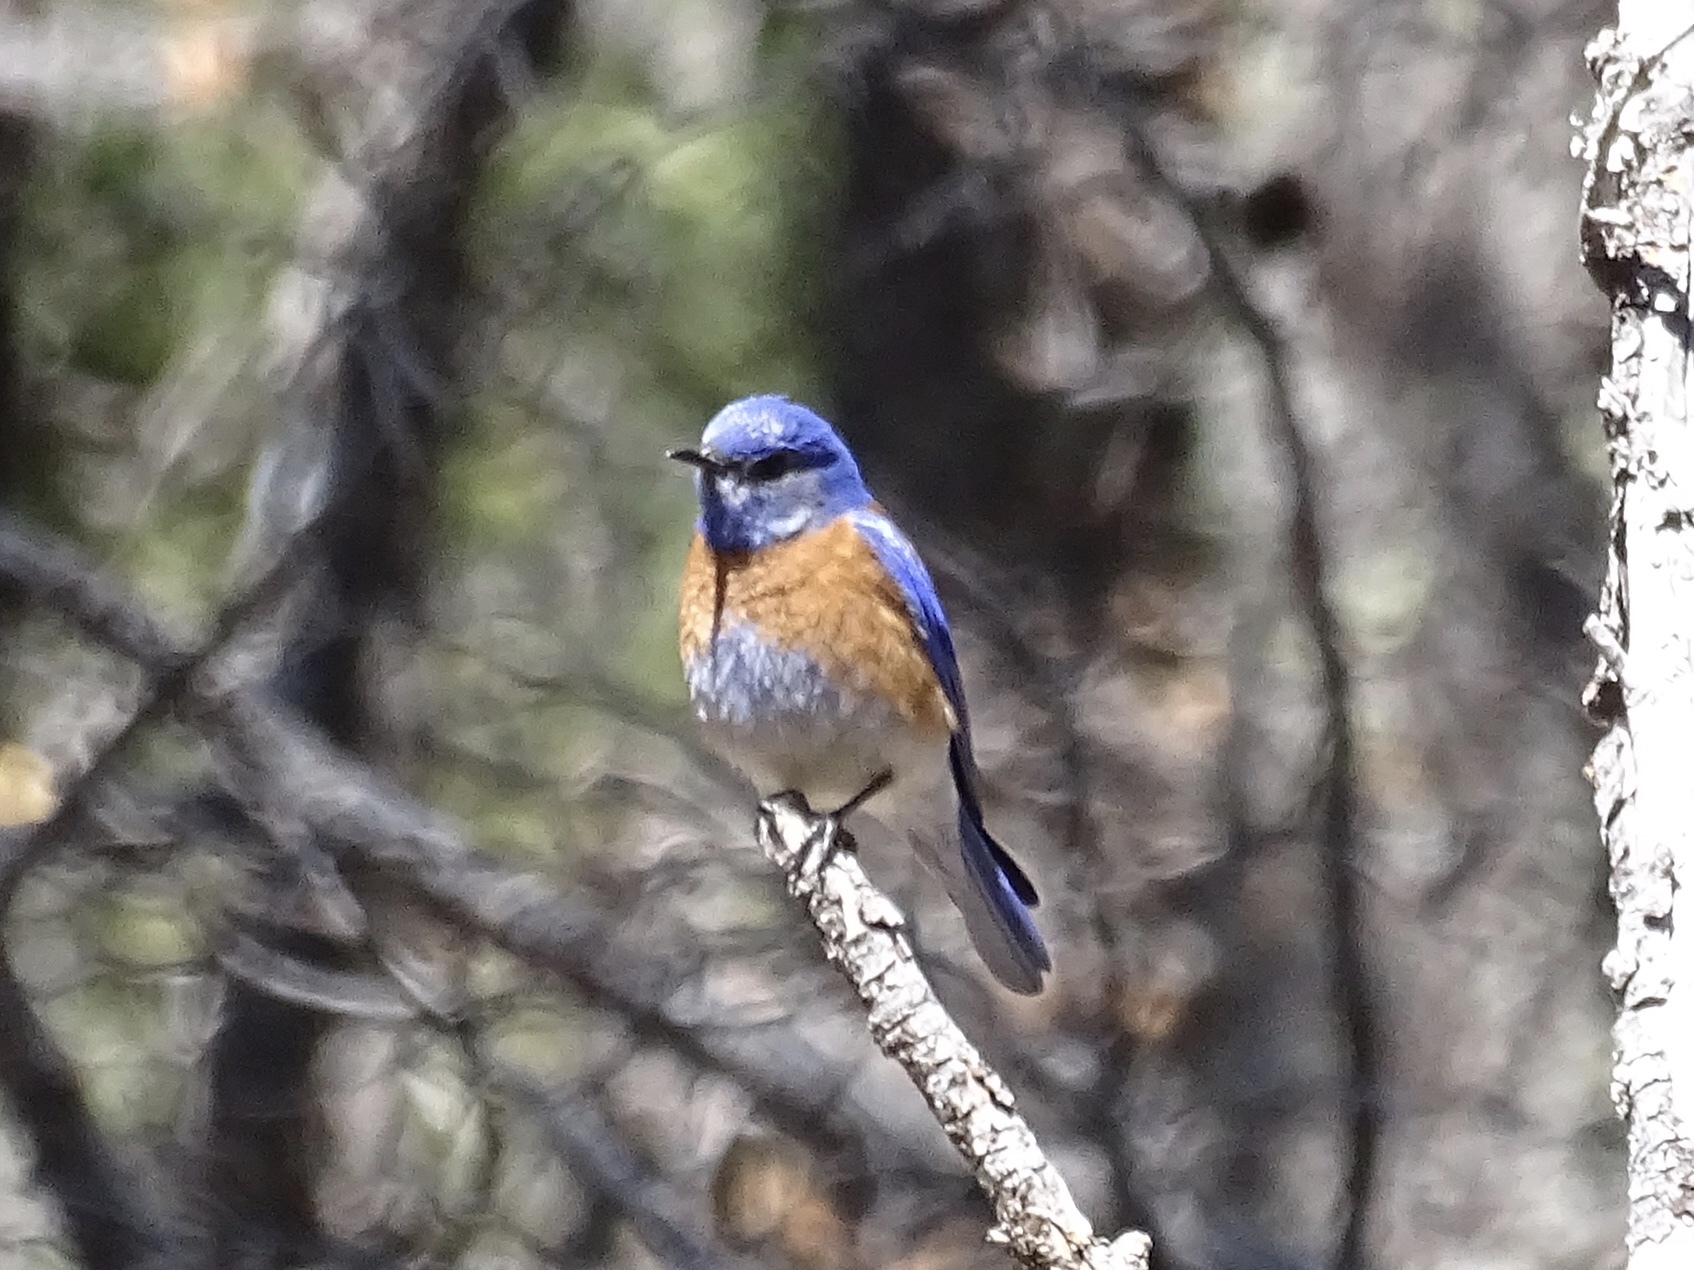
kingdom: Animalia
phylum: Chordata
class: Aves
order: Passeriformes
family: Turdidae
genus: Sialia
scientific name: Sialia mexicana
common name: Western bluebird
